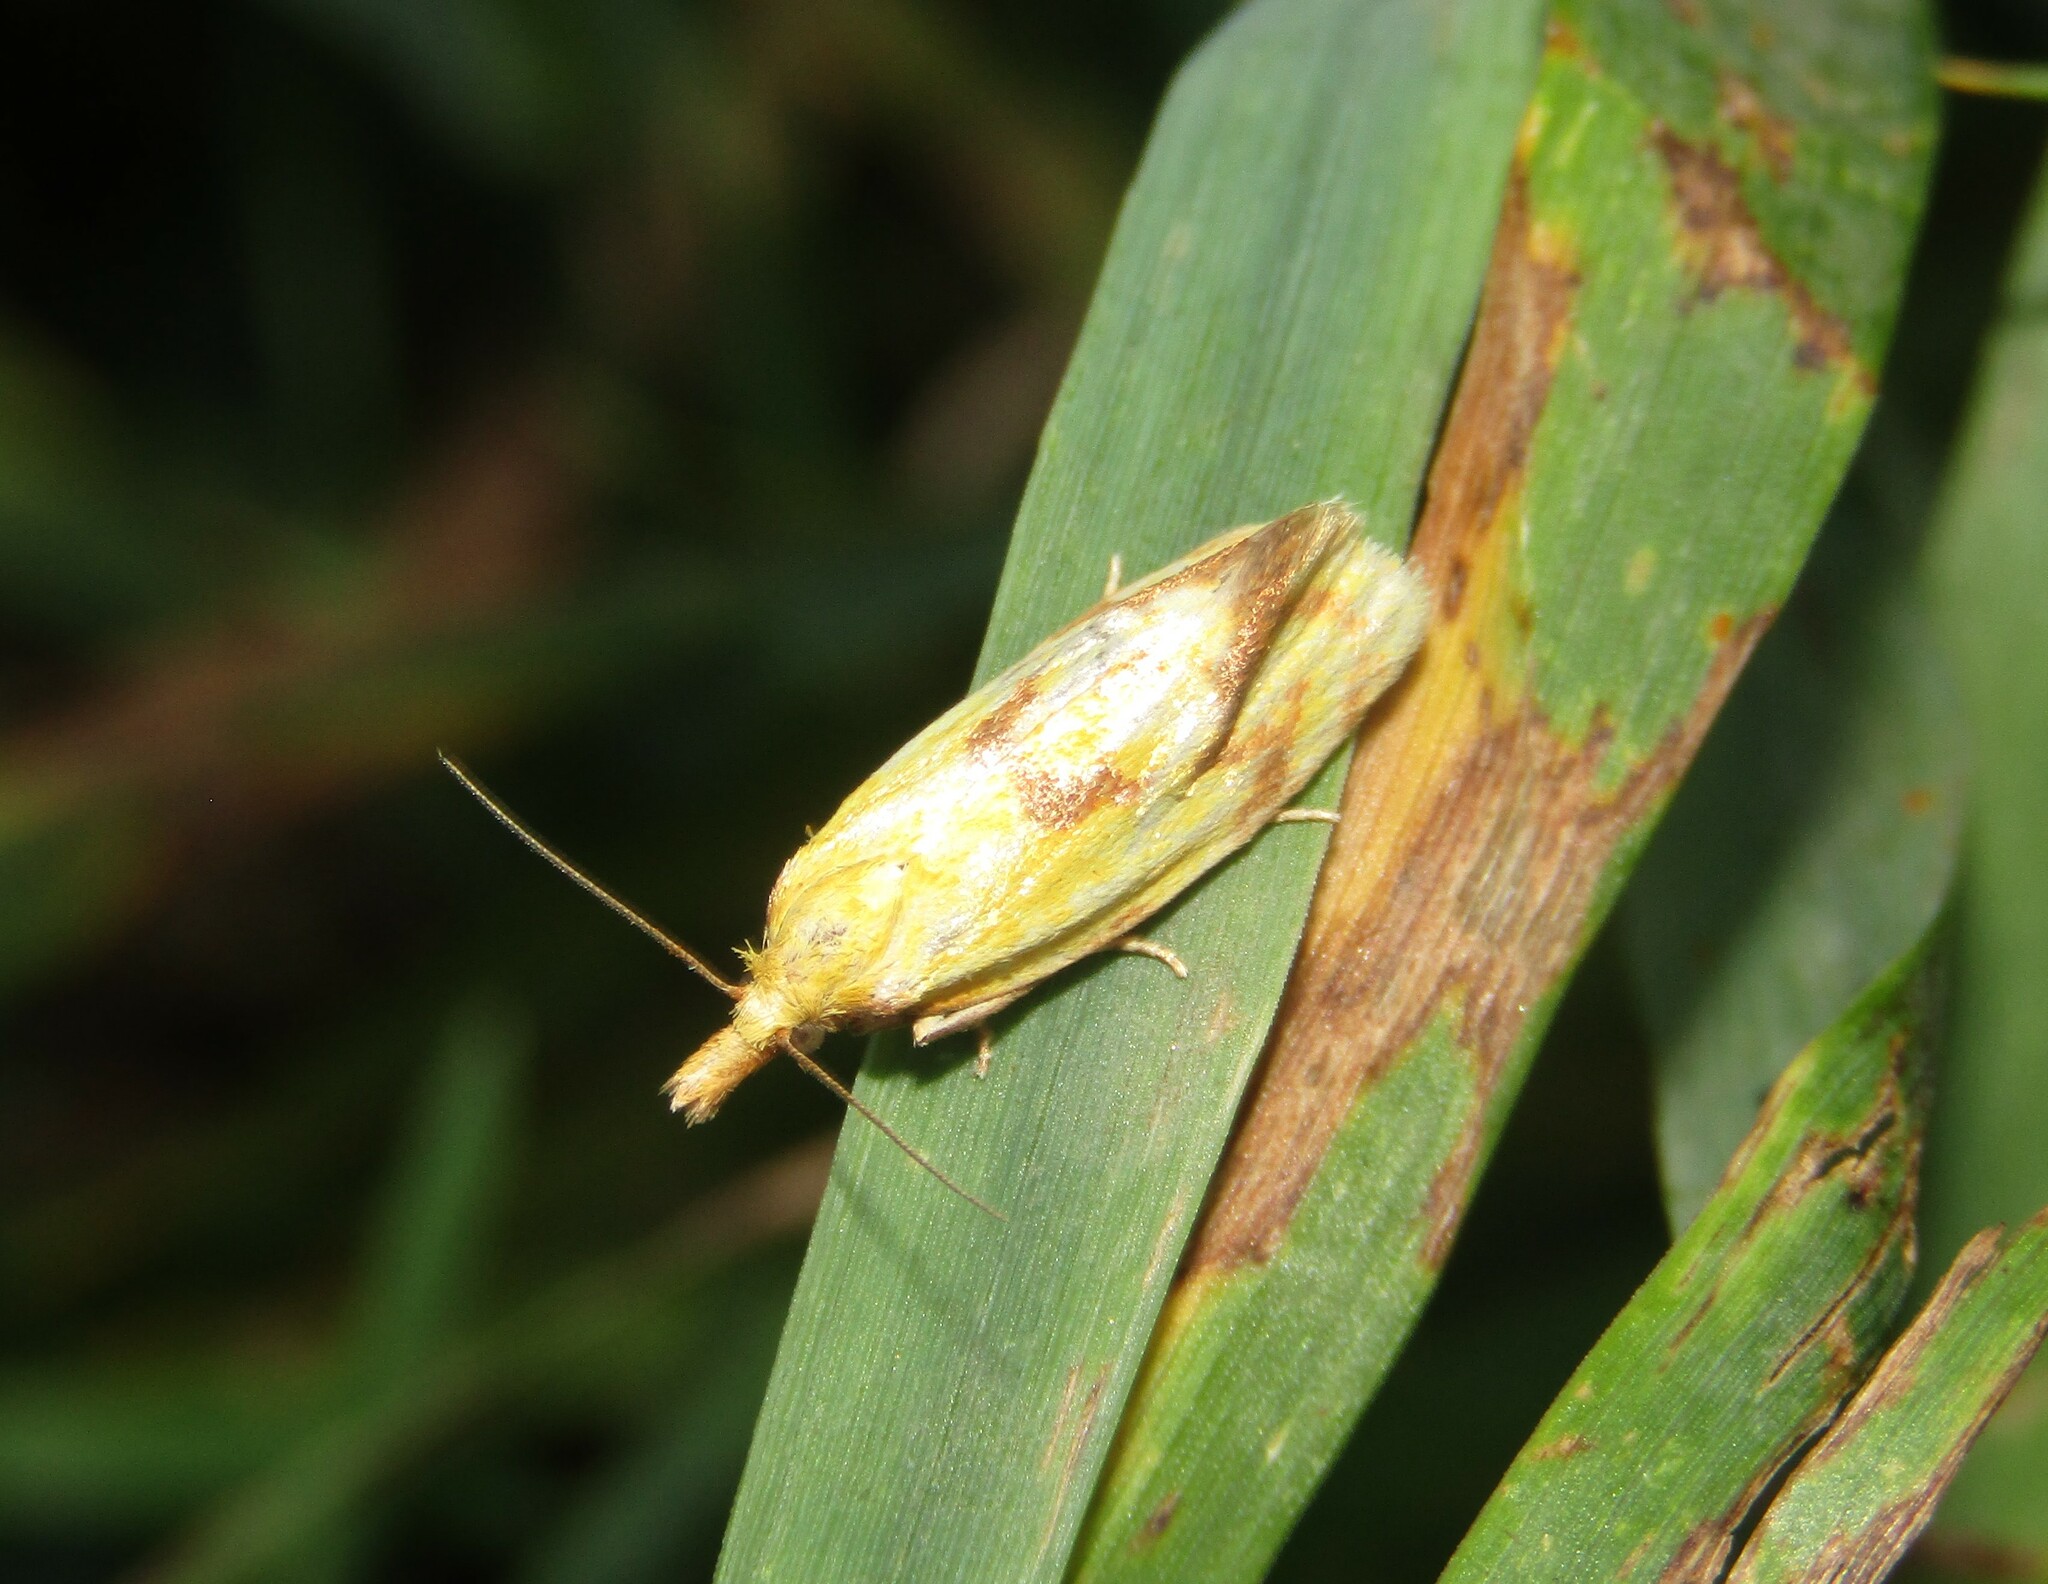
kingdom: Animalia
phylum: Arthropoda
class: Insecta
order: Lepidoptera
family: Tortricidae
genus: Agapeta
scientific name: Agapeta hamana
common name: Common yellow conch
